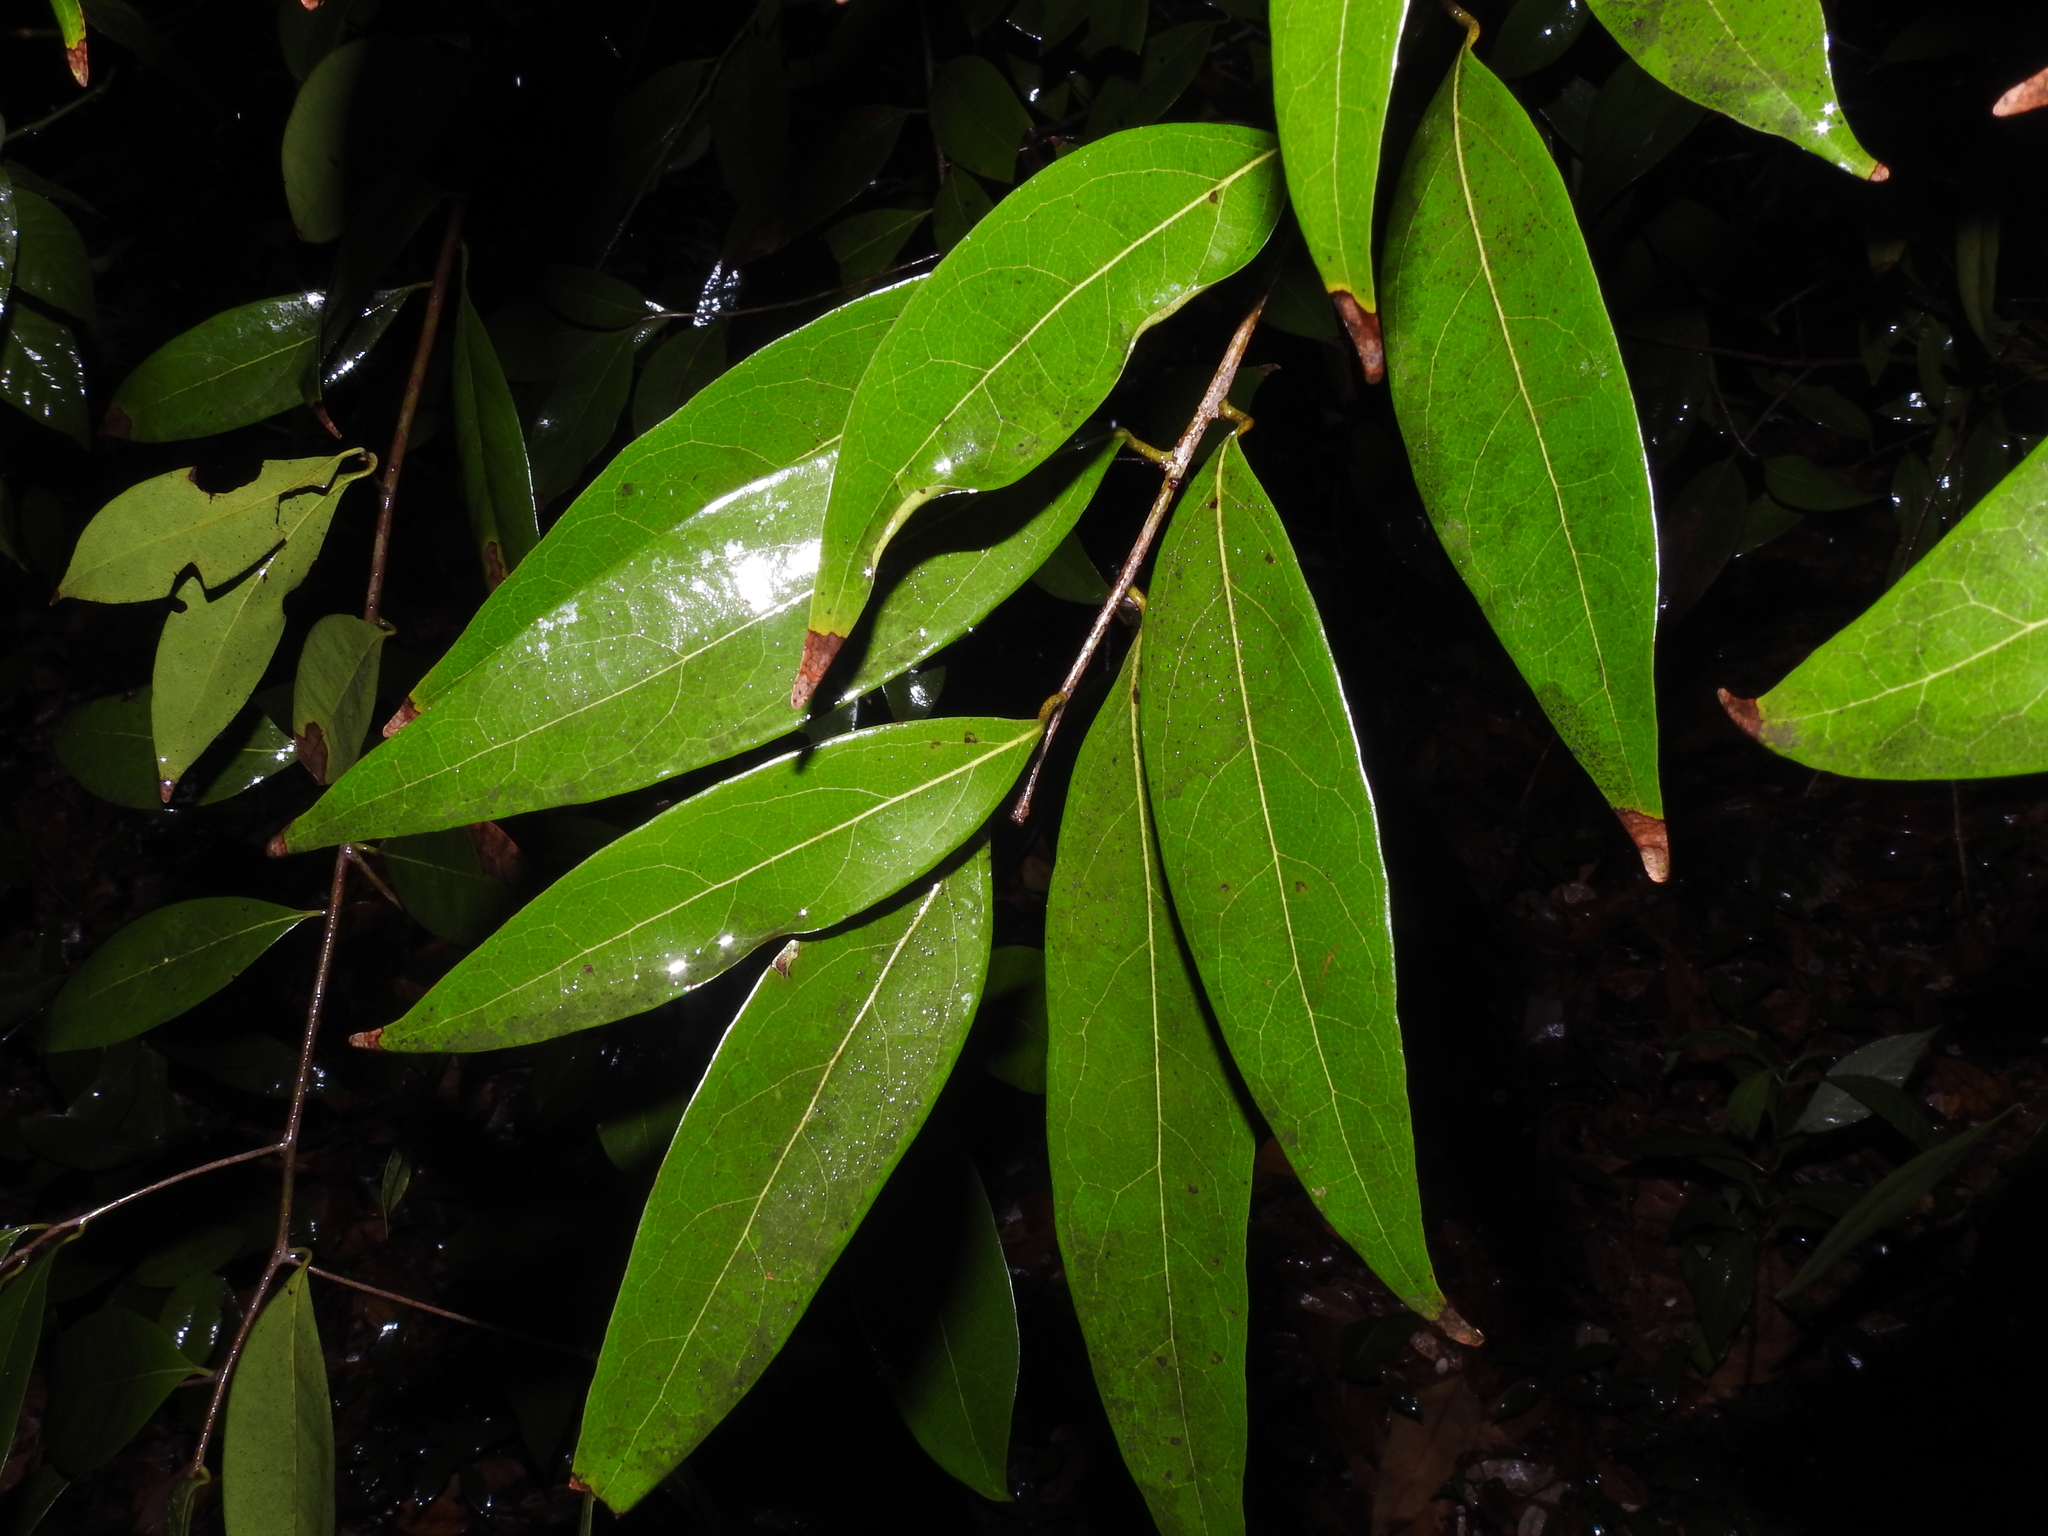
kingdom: Plantae
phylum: Tracheophyta
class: Magnoliopsida
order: Laurales
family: Lauraceae
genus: Damburneya
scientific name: Damburneya
